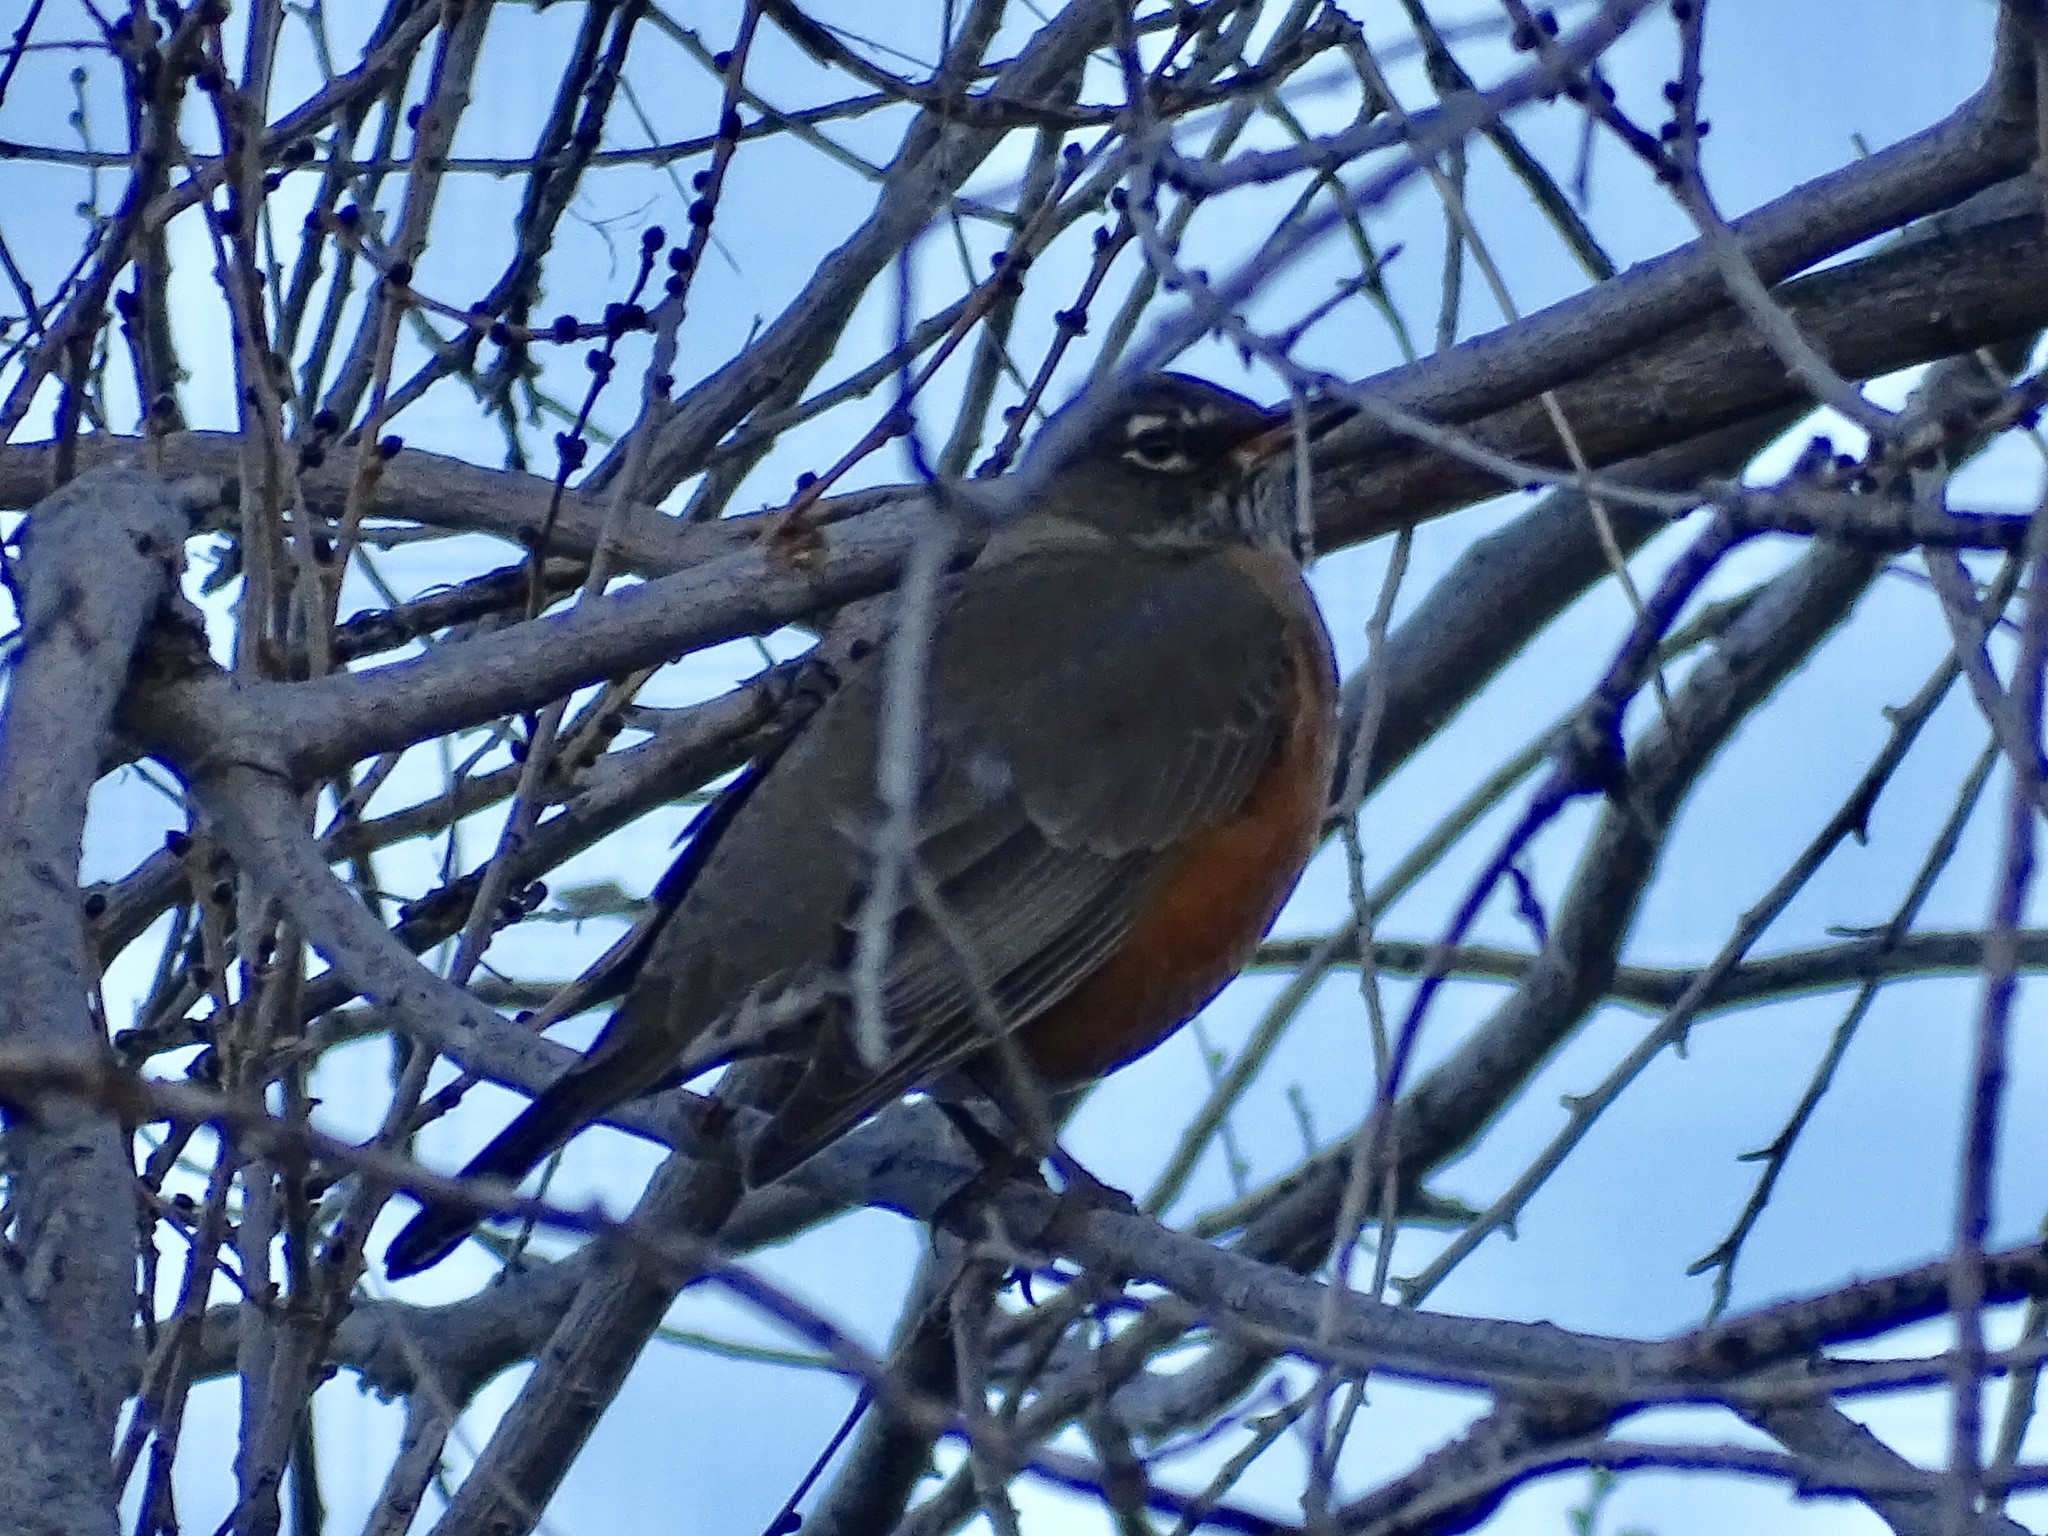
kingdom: Animalia
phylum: Chordata
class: Aves
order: Passeriformes
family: Turdidae
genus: Turdus
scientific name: Turdus migratorius
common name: American robin
